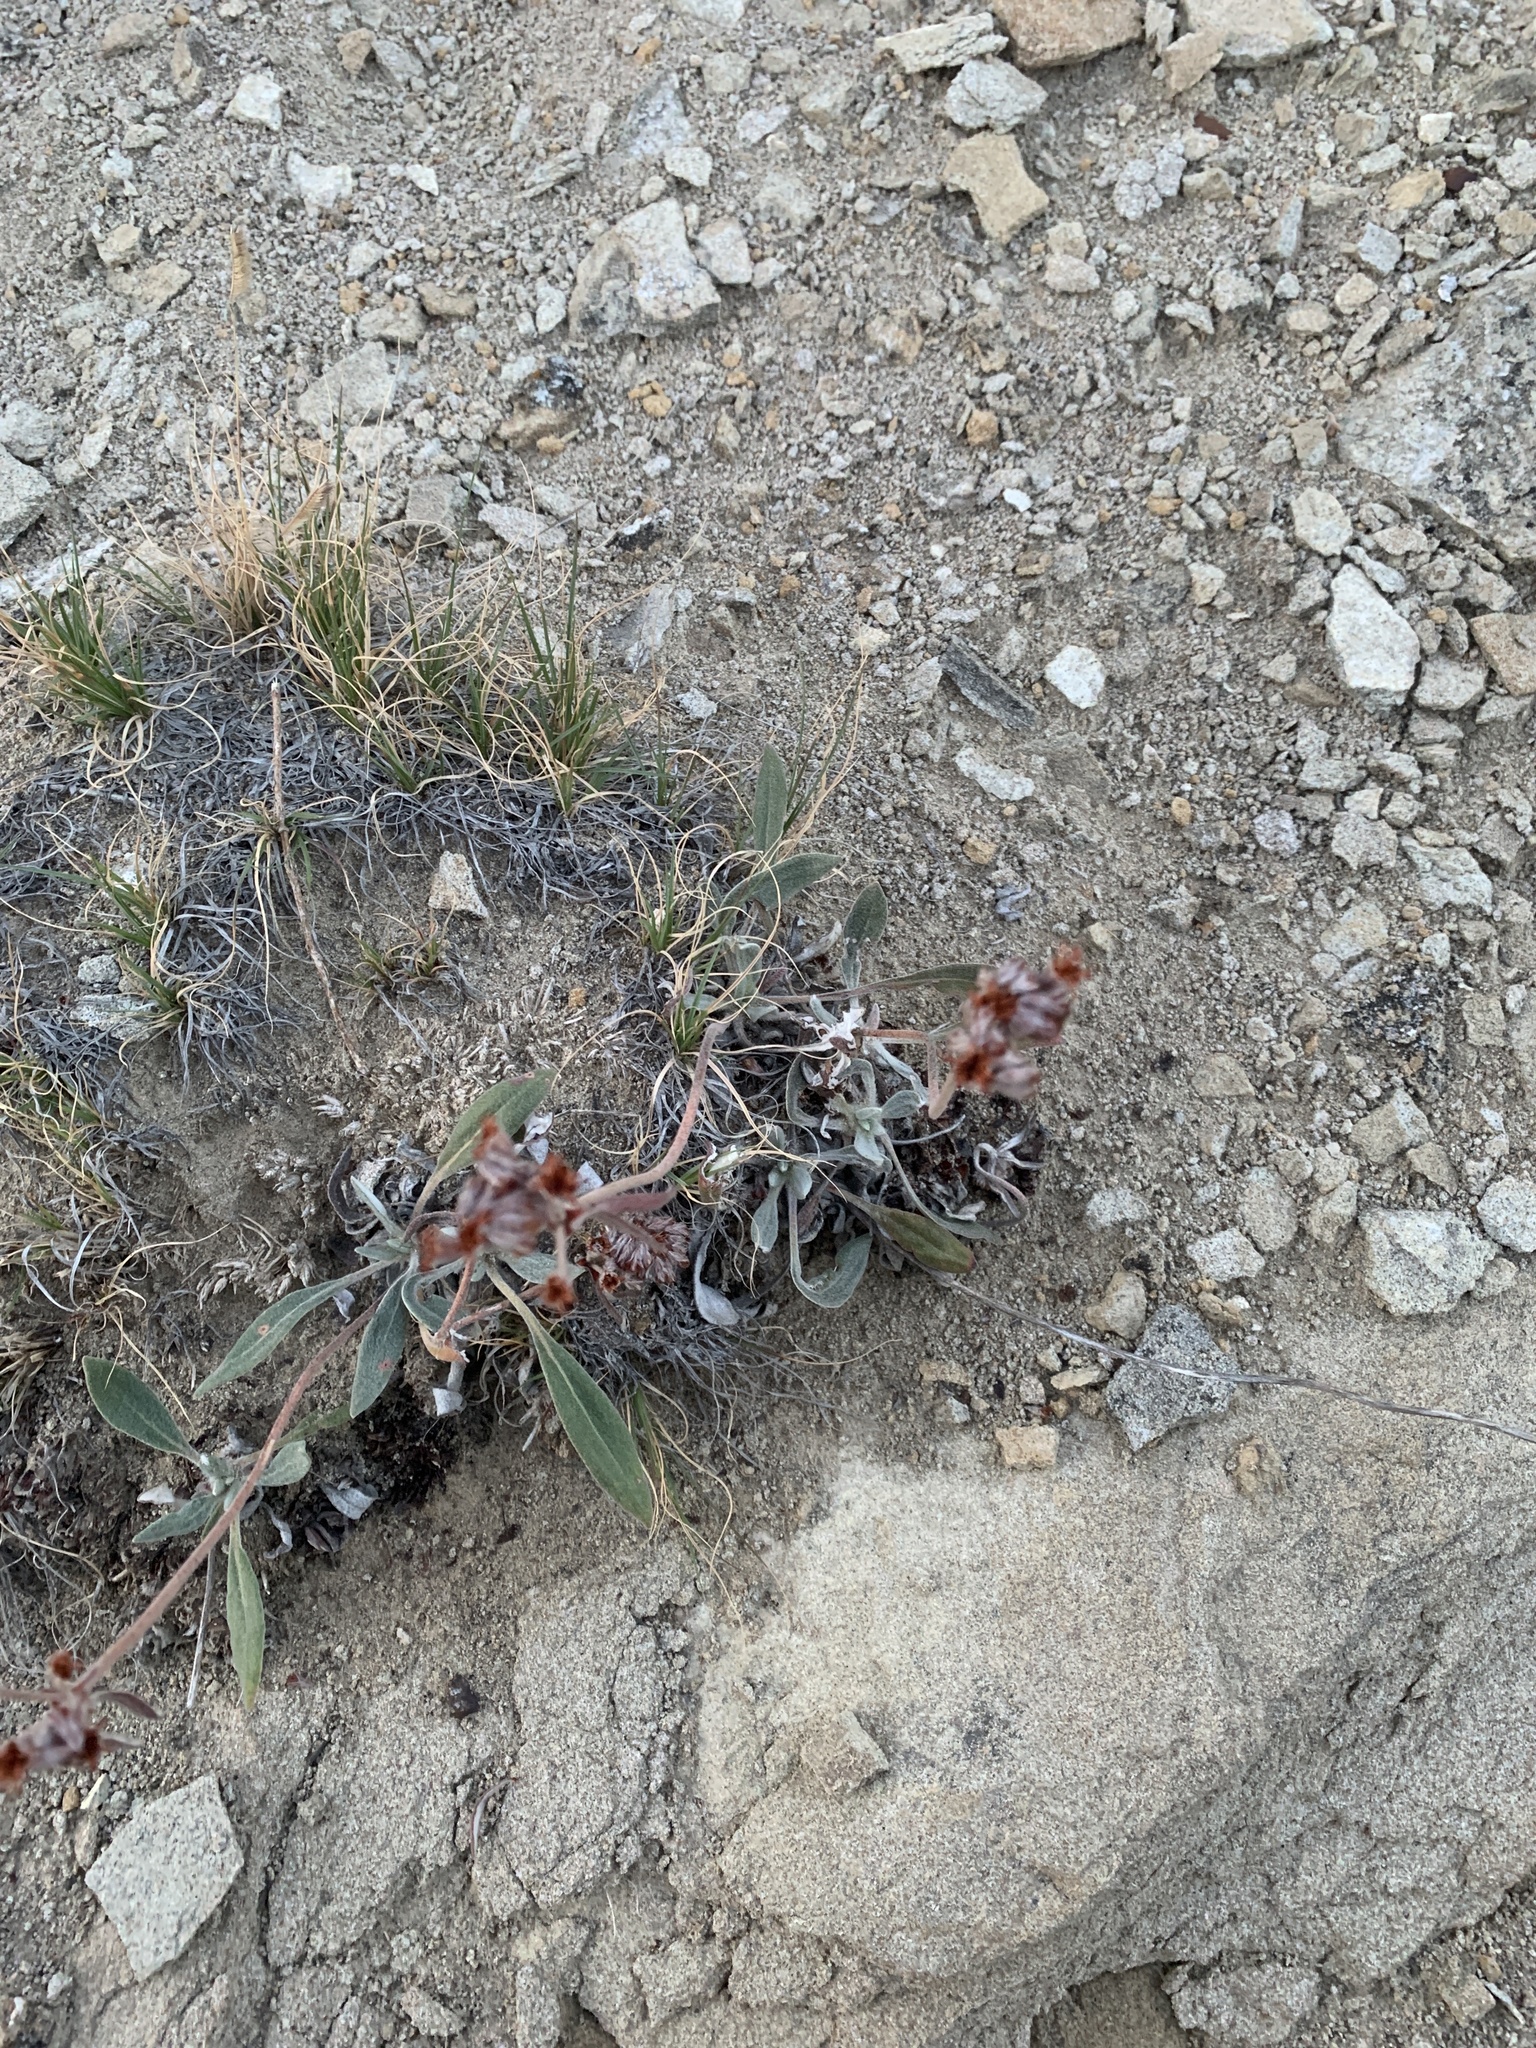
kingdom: Plantae
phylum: Tracheophyta
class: Magnoliopsida
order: Caryophyllales
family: Polygonaceae
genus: Eriogonum
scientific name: Eriogonum flavum
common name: Alpine golden wild buckwheat
